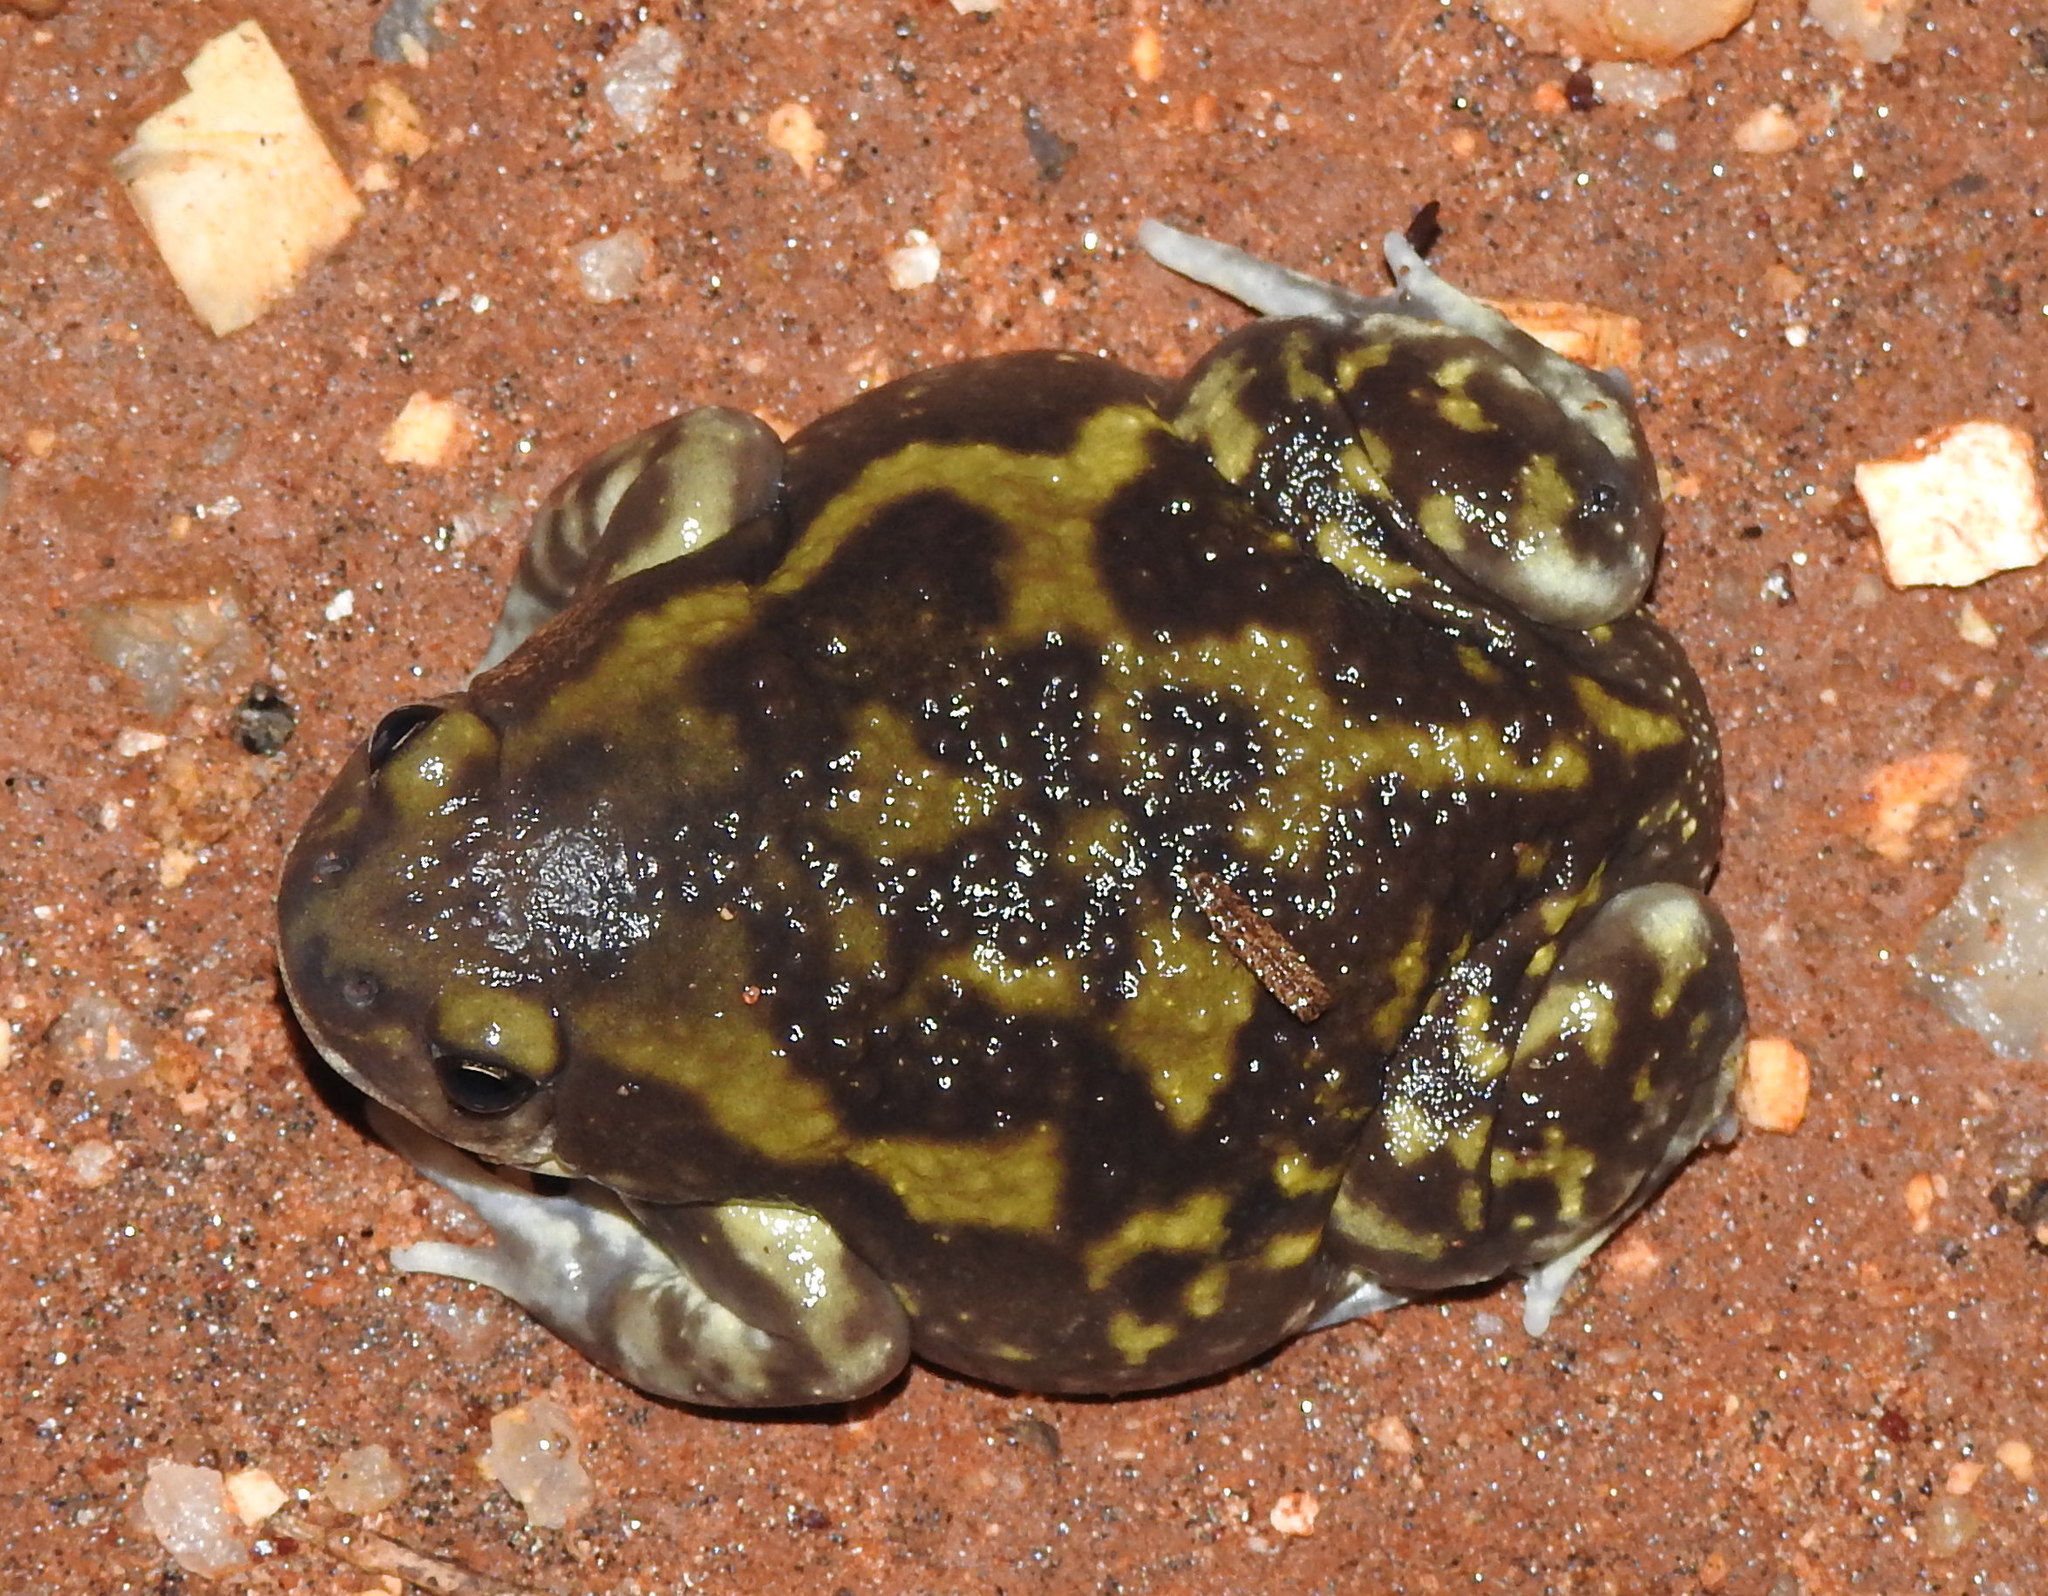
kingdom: Animalia
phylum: Chordata
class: Amphibia
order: Anura
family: Microhylidae
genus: Uperodon
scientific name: Uperodon systoma
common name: Balloon frog
